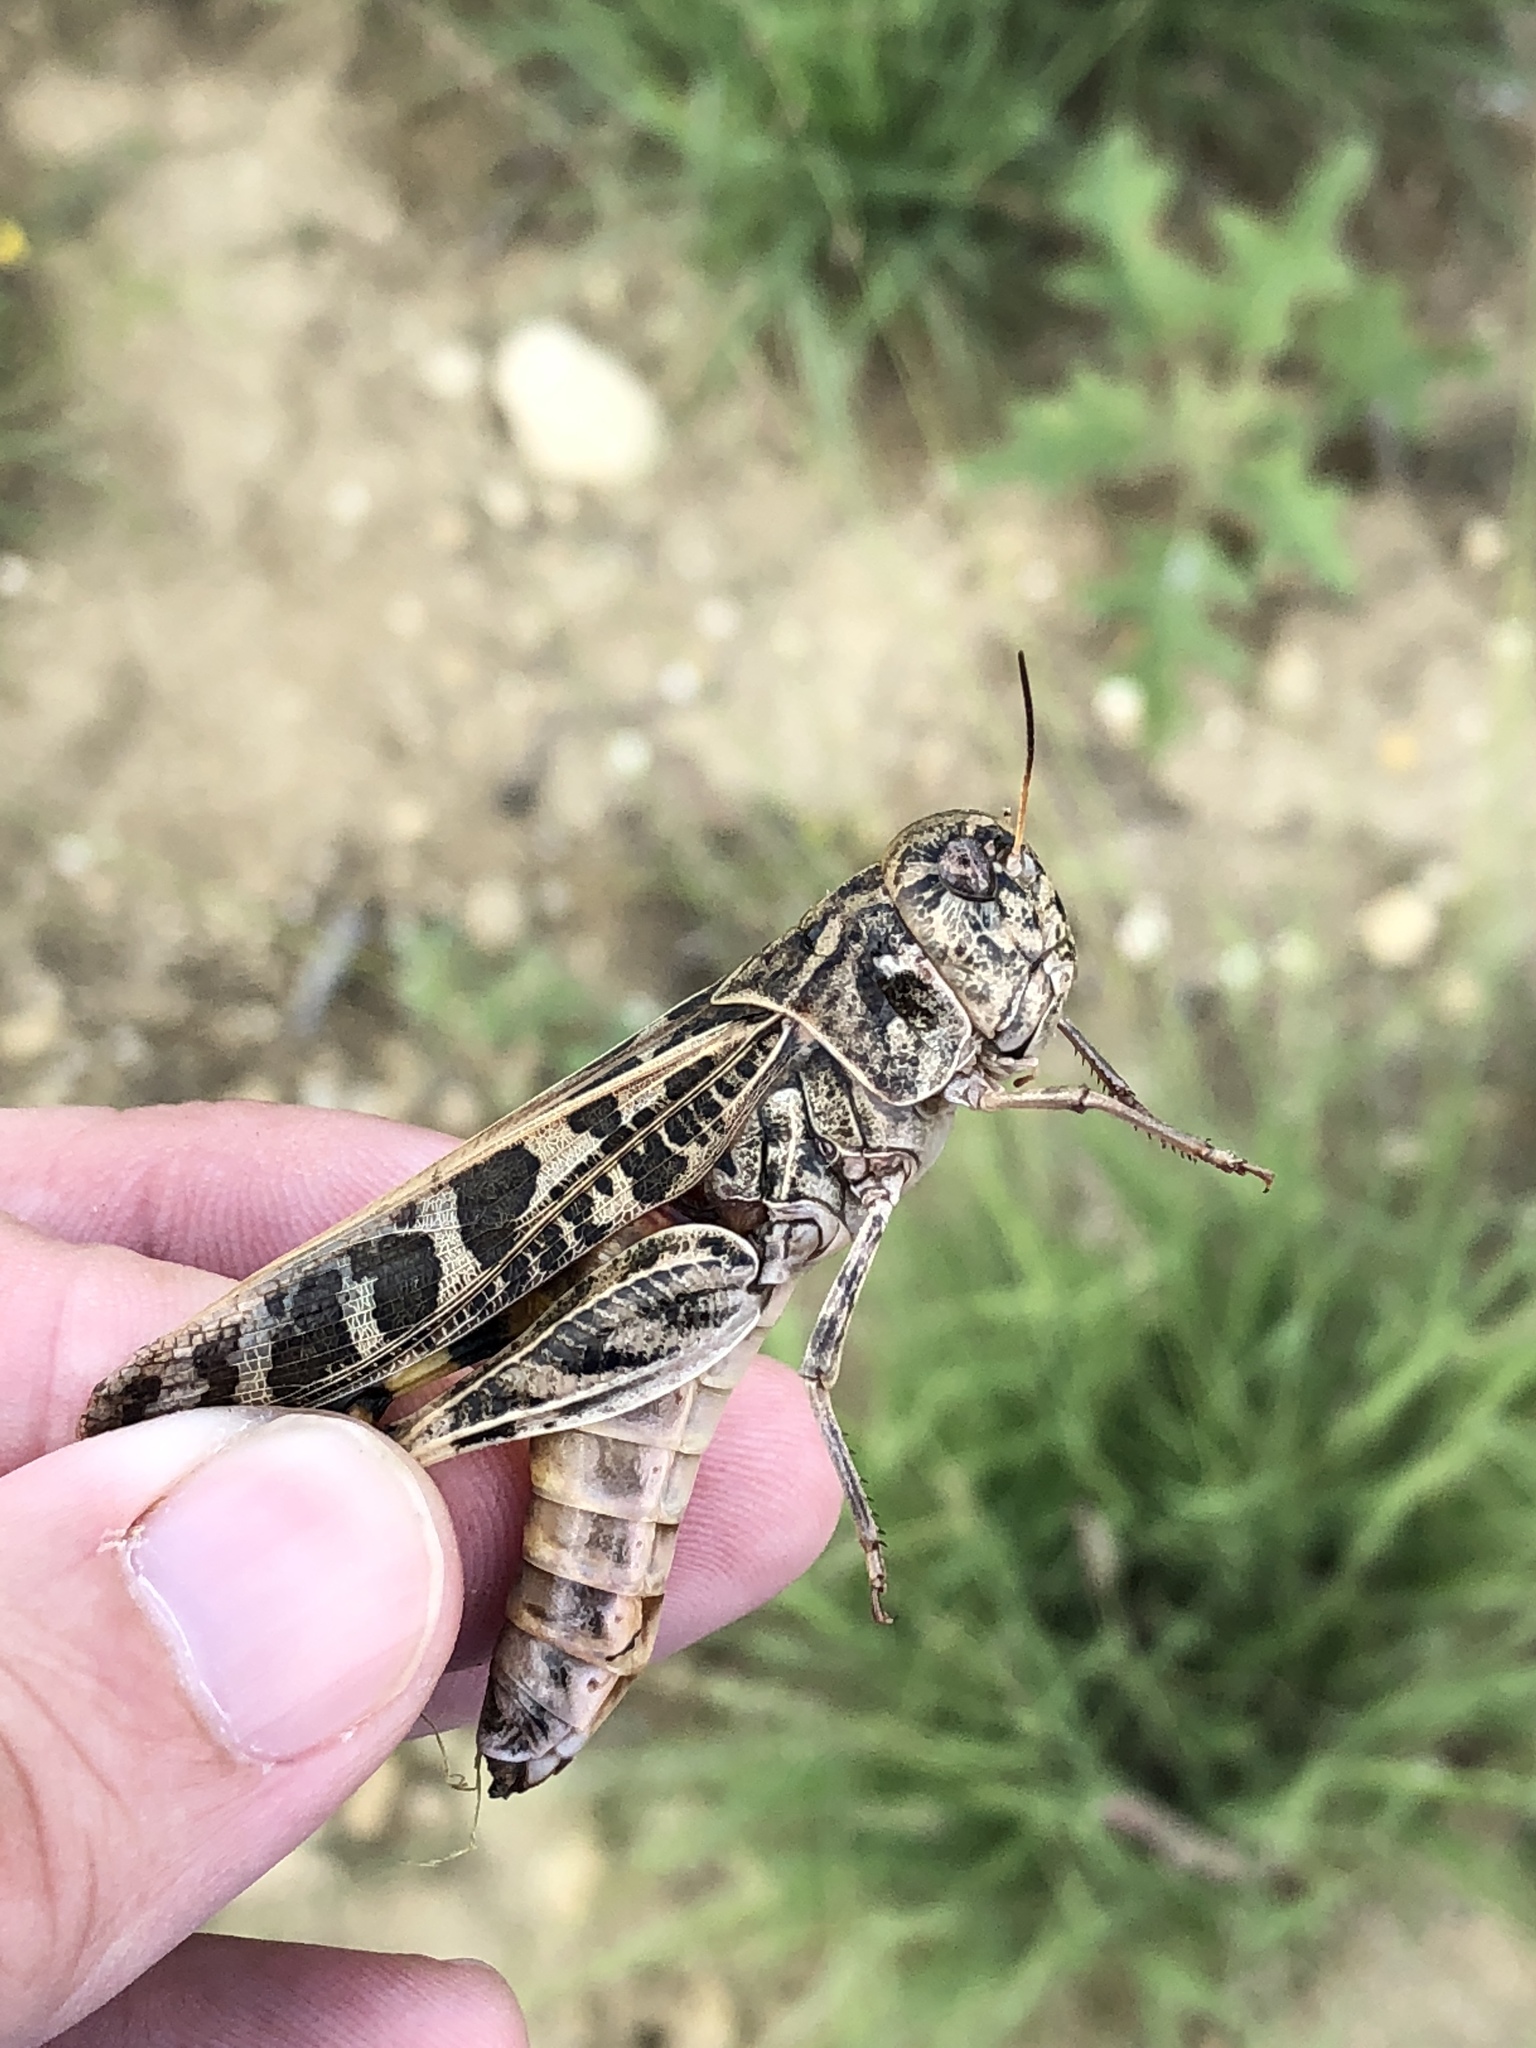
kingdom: Animalia
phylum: Arthropoda
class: Insecta
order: Orthoptera
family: Acrididae
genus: Hippiscus
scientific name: Hippiscus ocelote
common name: Wrinkled grasshopper
